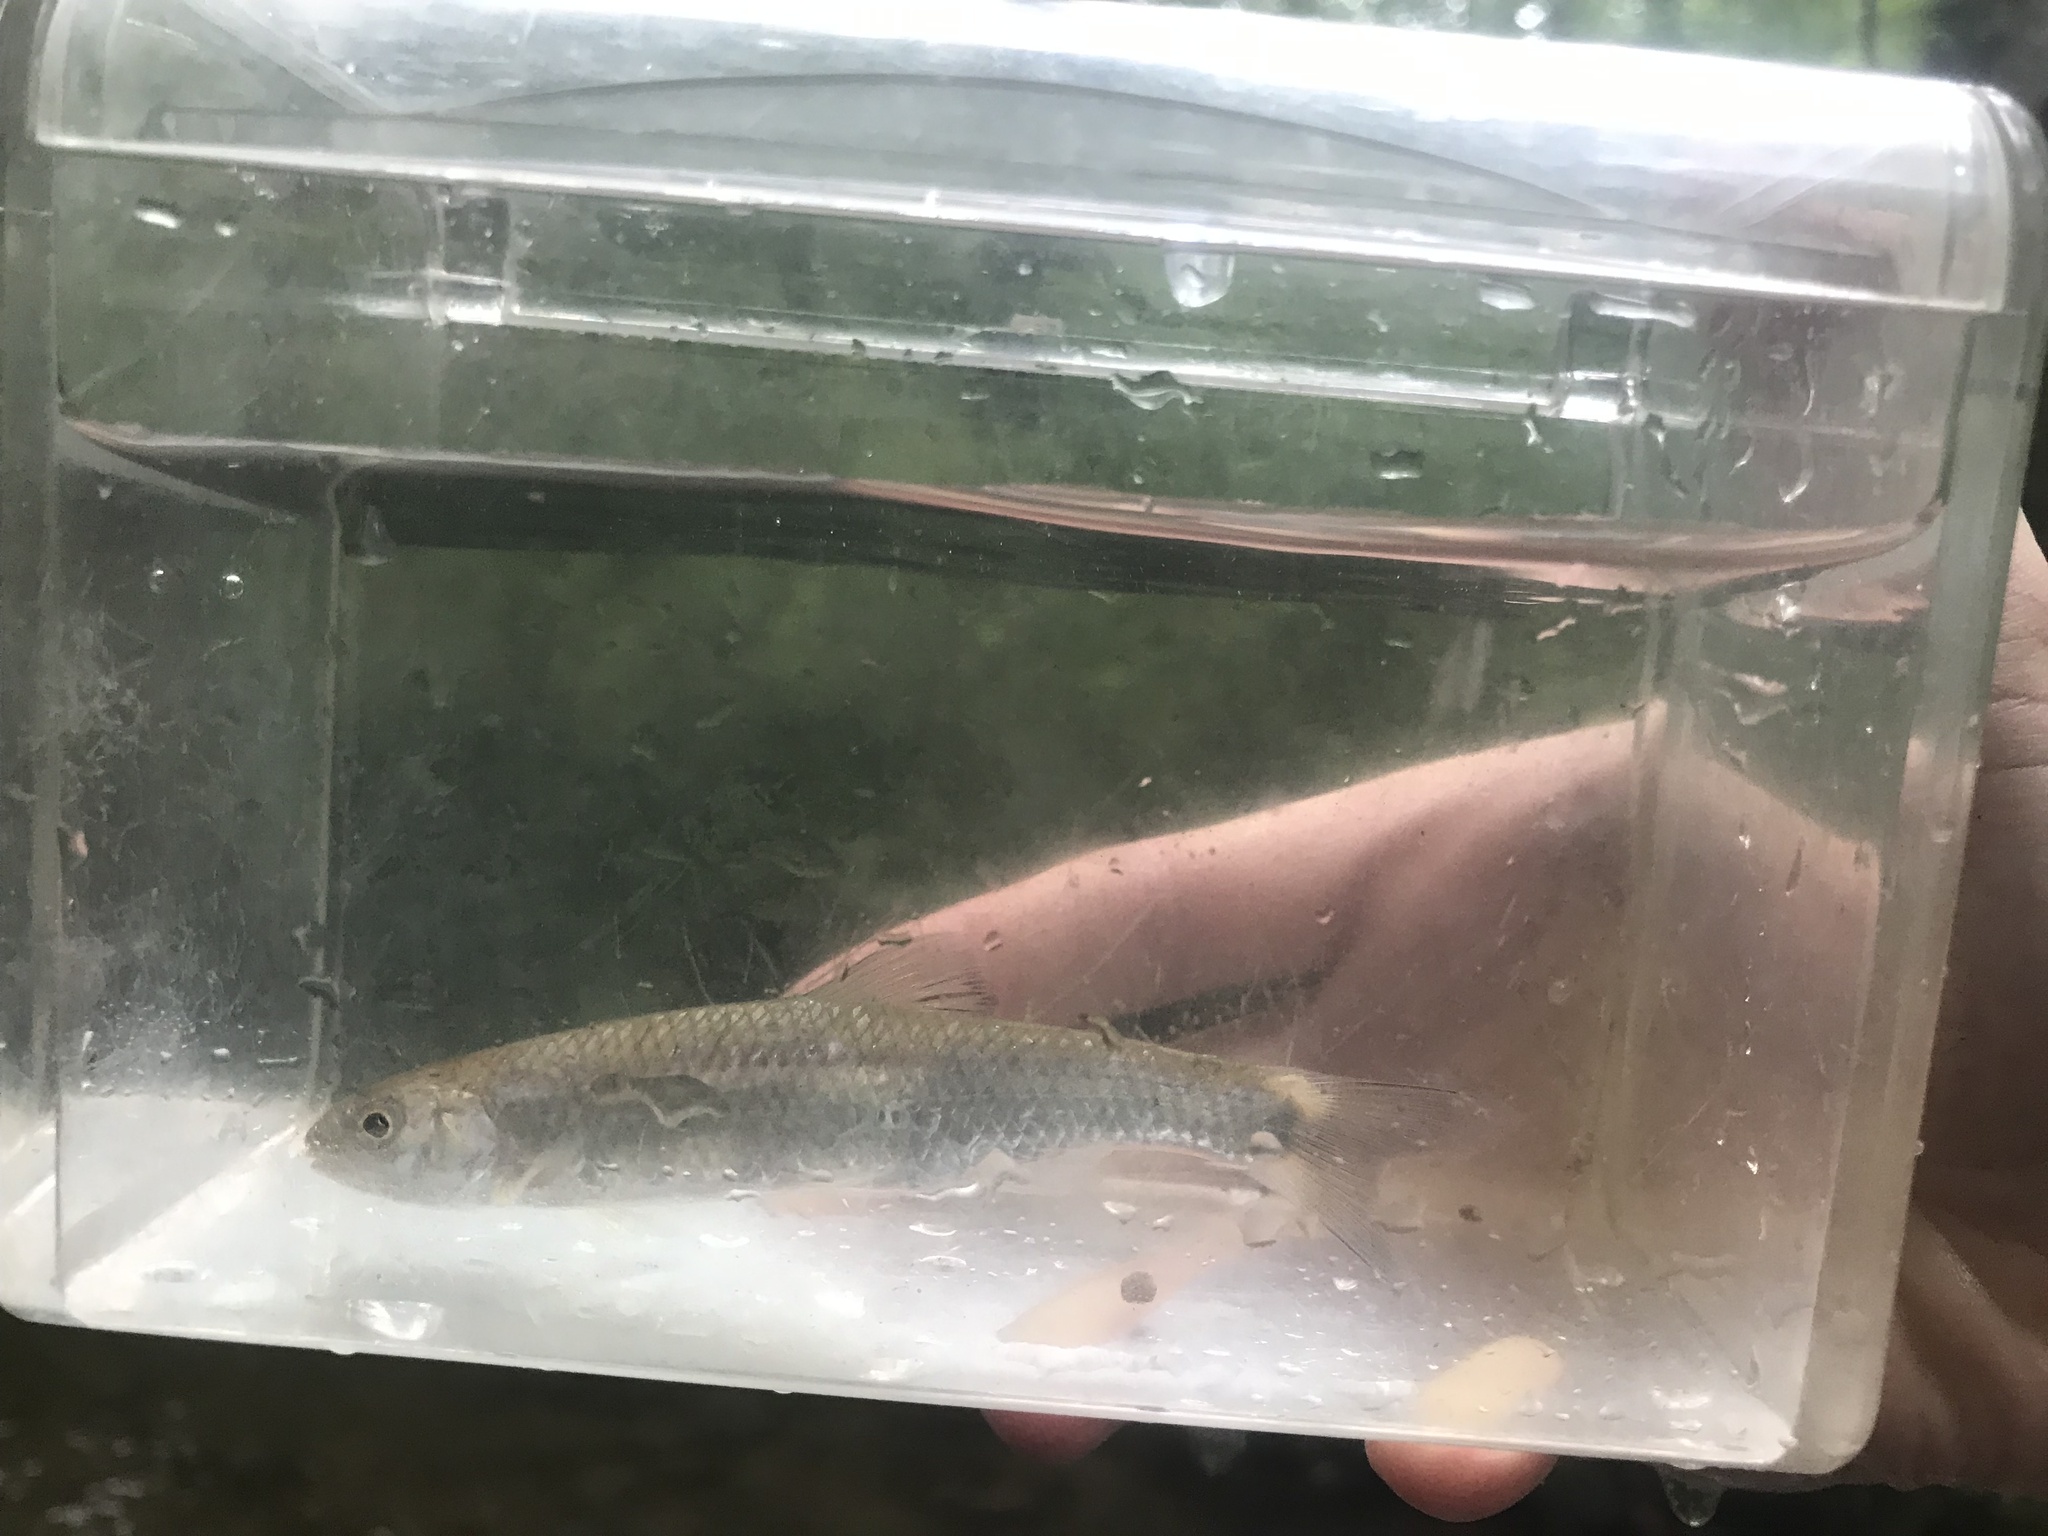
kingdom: Animalia
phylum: Chordata
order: Cypriniformes
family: Cyprinidae
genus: Cyprinella
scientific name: Cyprinella galactura
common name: Whitetail shiner
